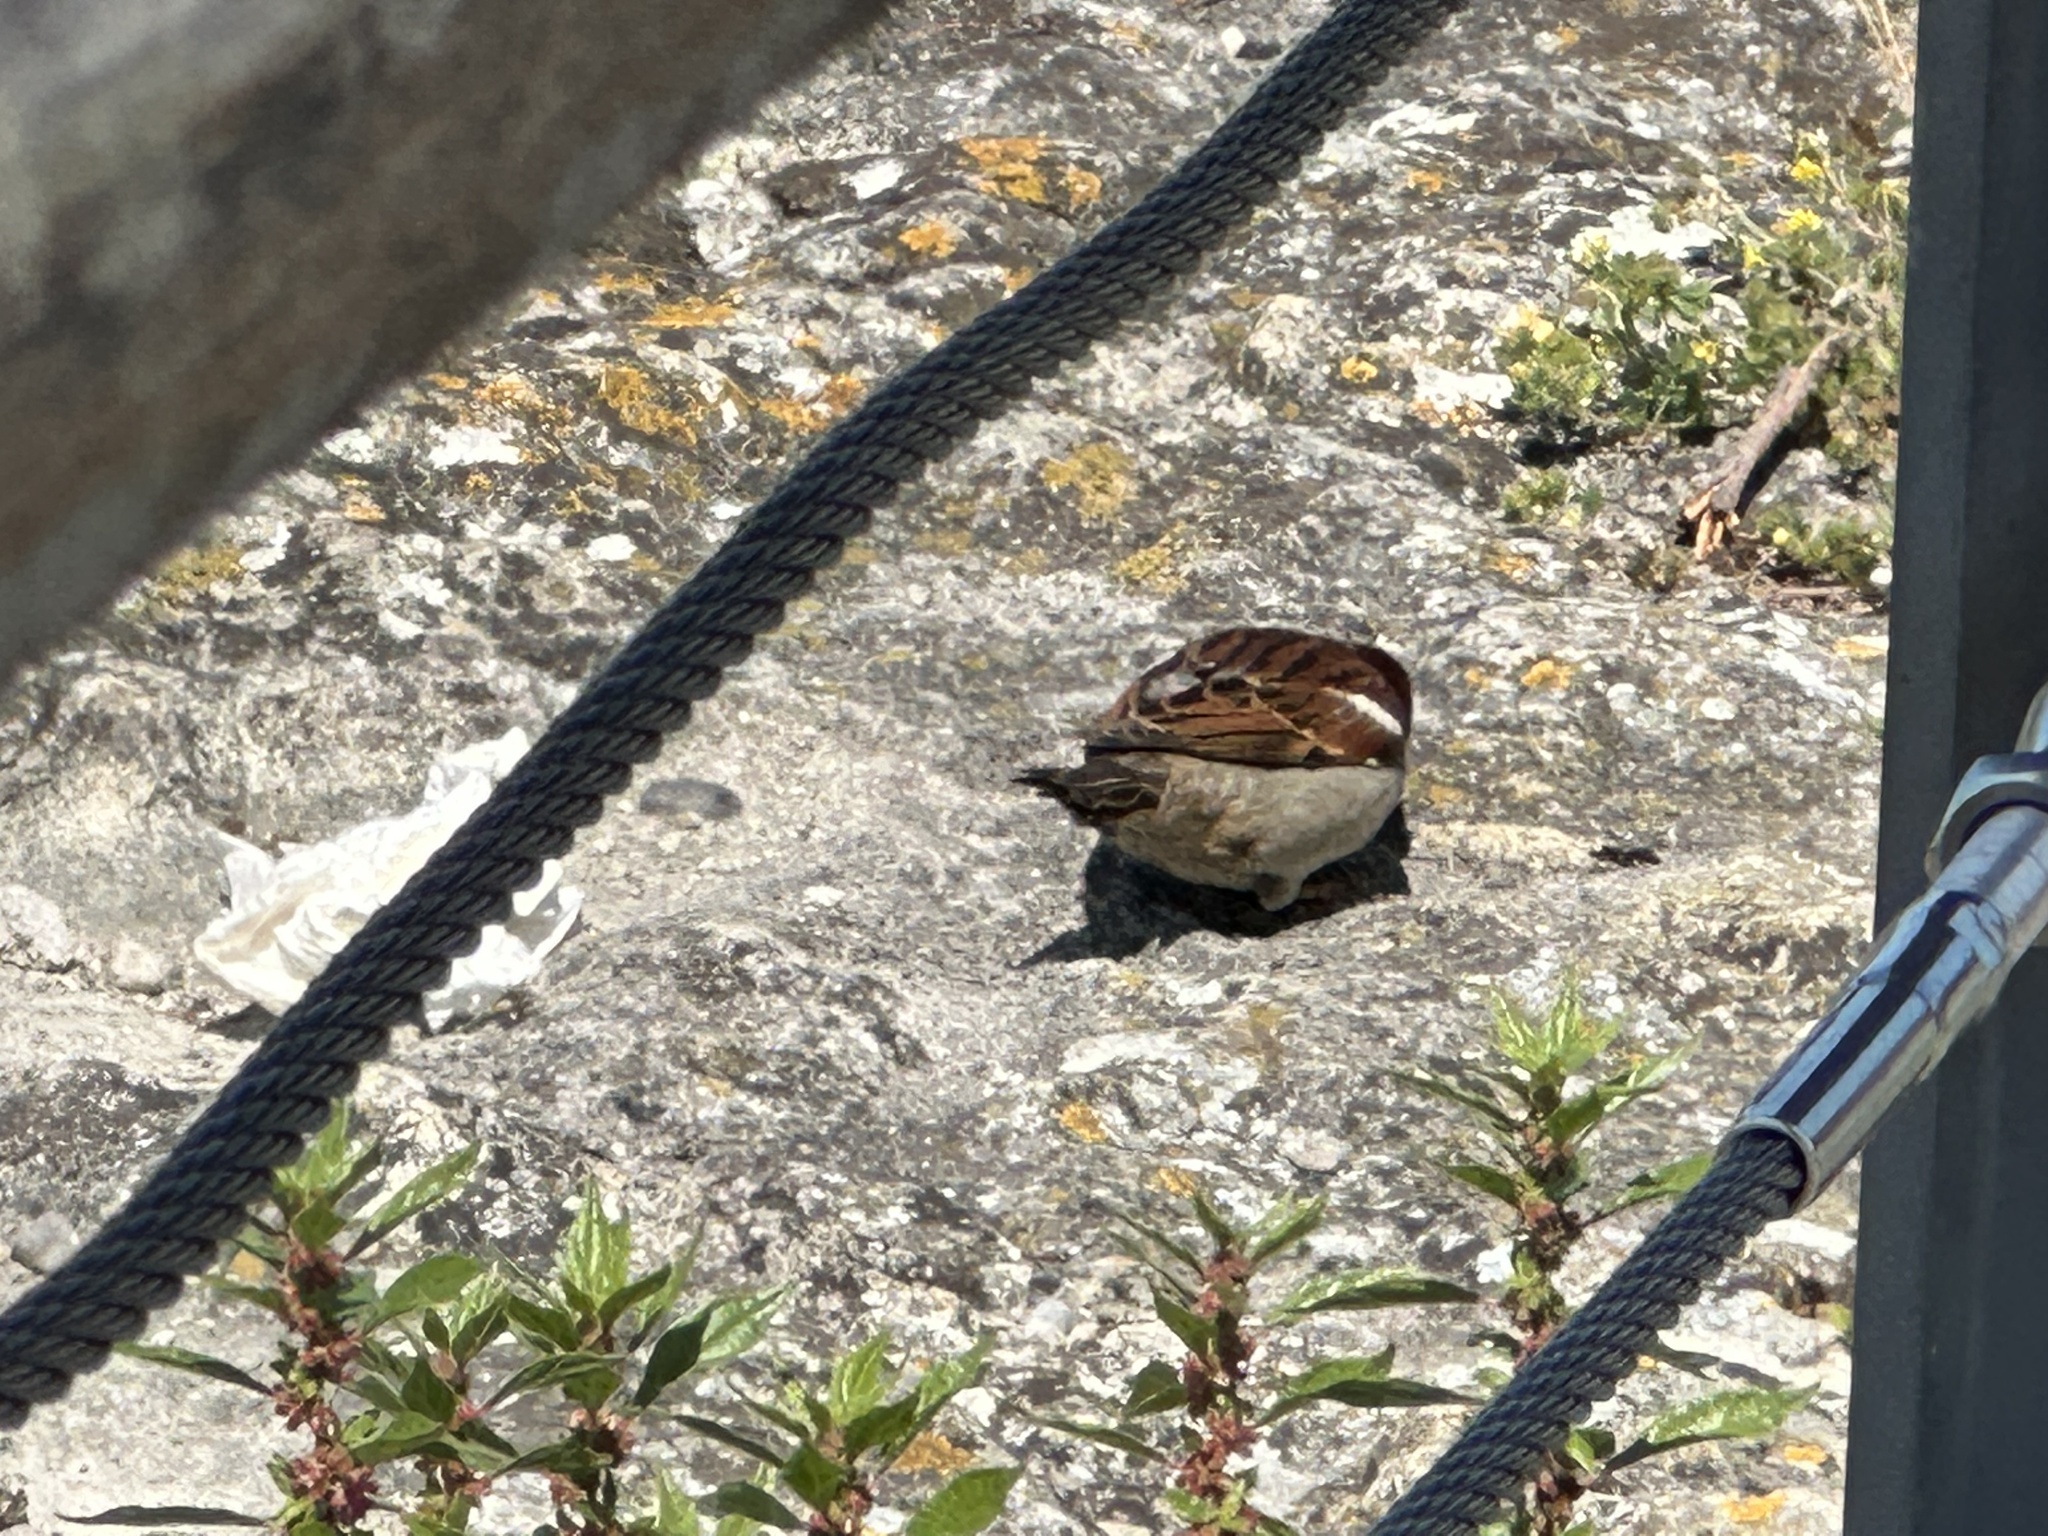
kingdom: Animalia
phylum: Chordata
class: Aves
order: Passeriformes
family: Passeridae
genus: Passer
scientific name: Passer domesticus
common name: House sparrow
